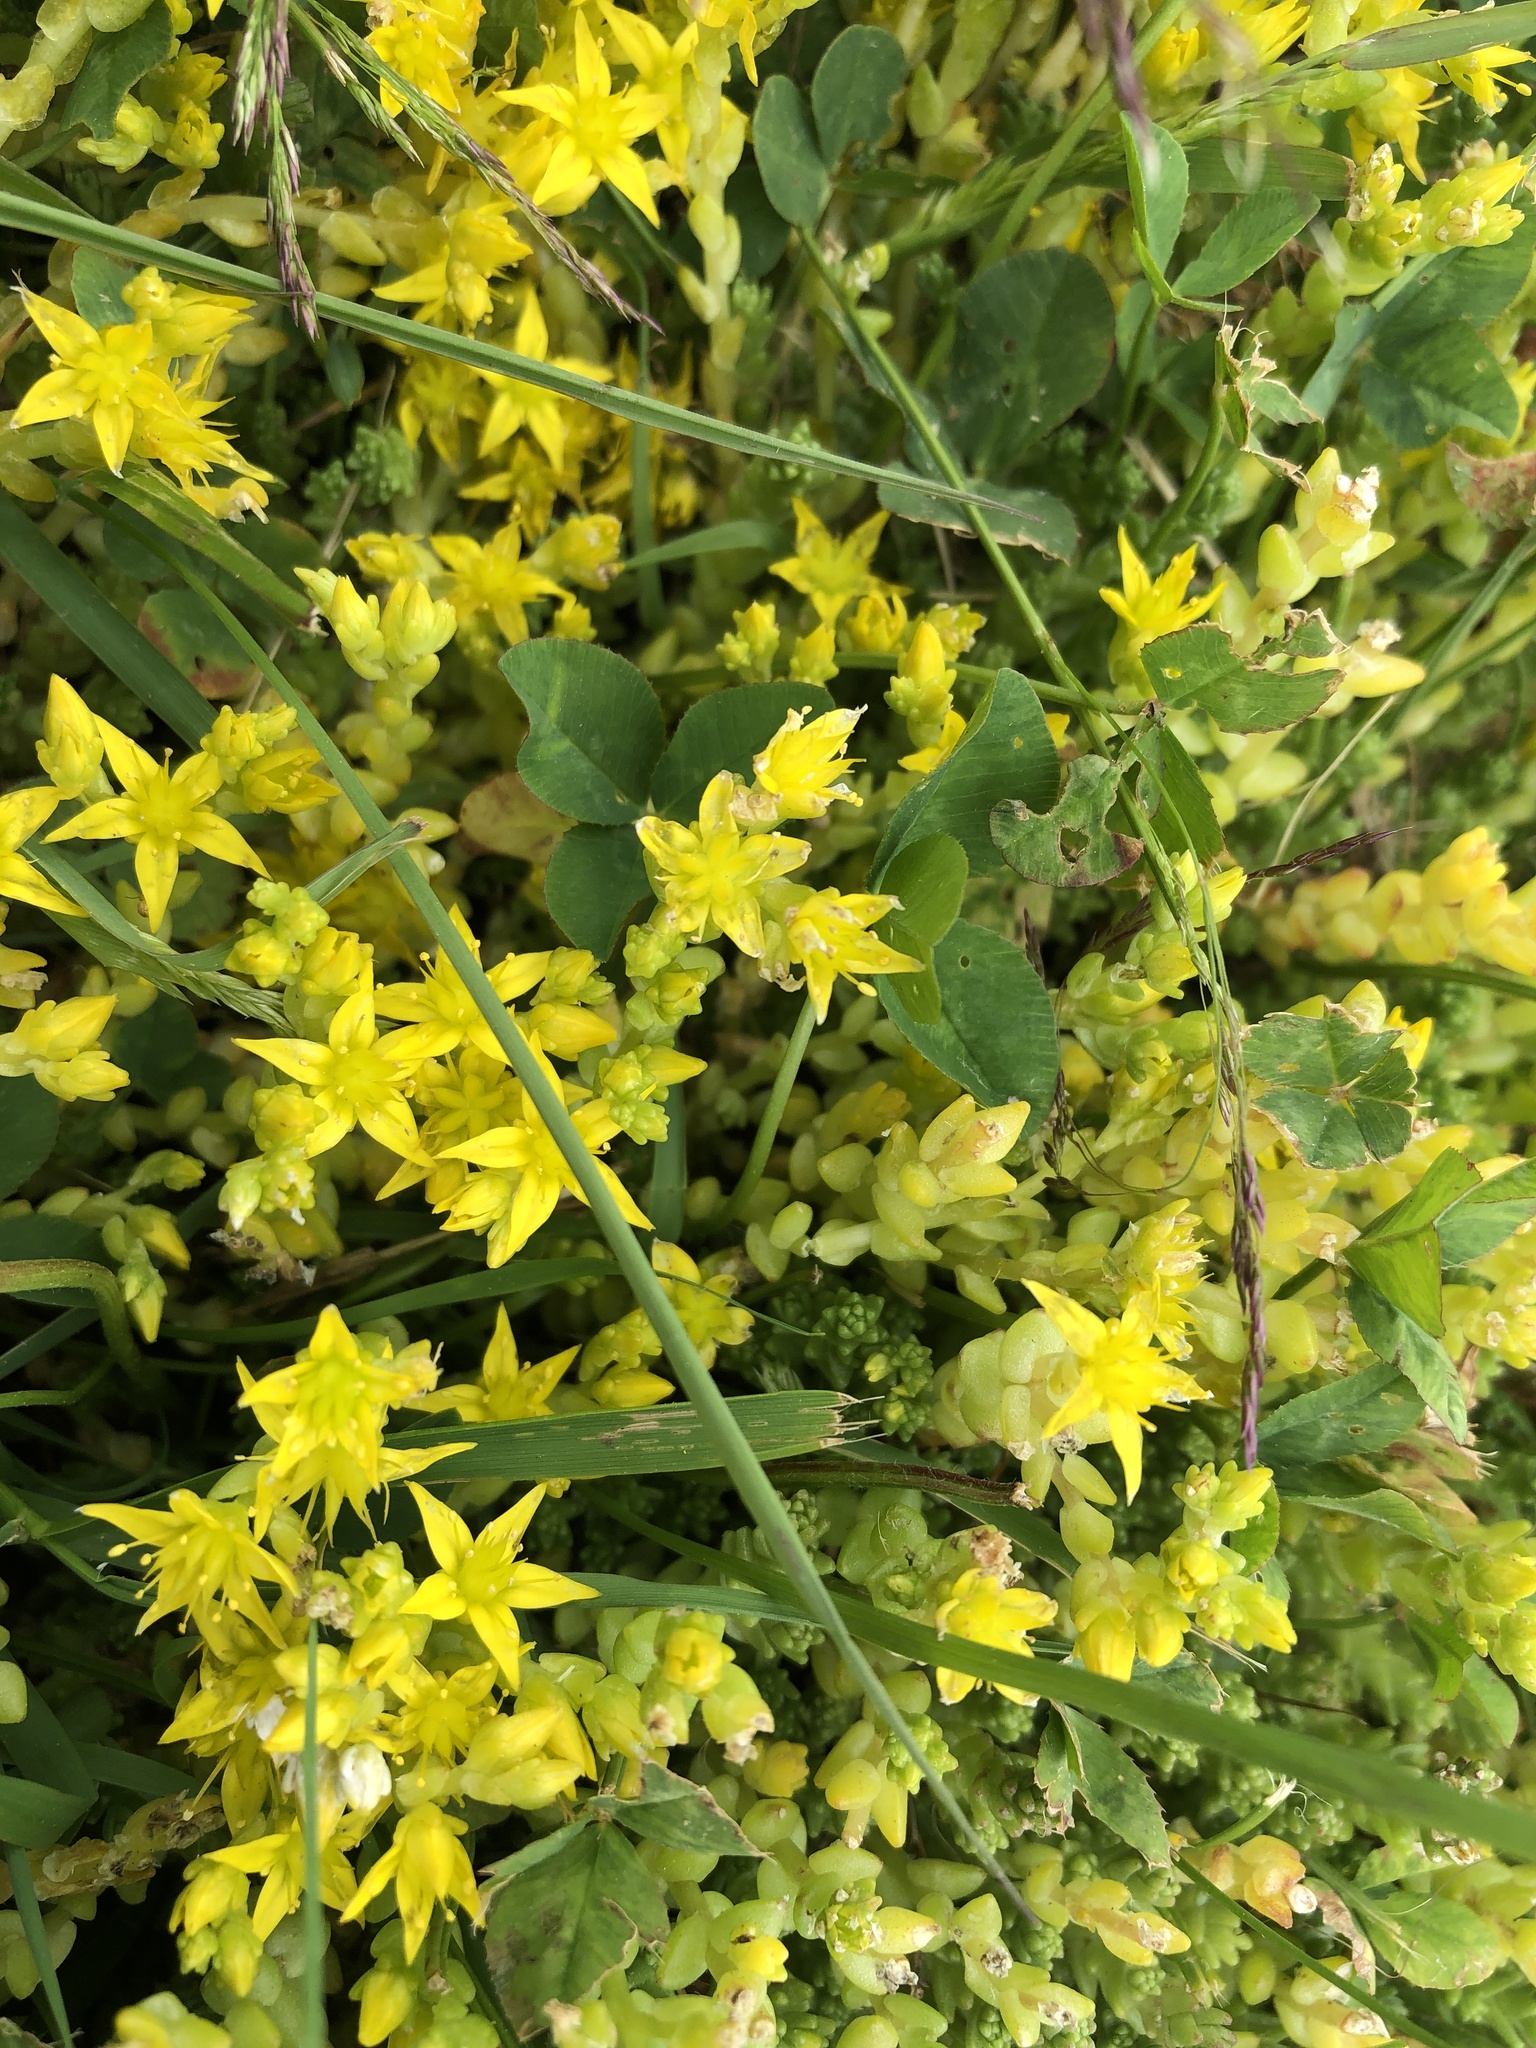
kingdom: Plantae
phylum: Tracheophyta
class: Magnoliopsida
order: Saxifragales
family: Crassulaceae
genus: Sedum
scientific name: Sedum acre
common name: Biting stonecrop
